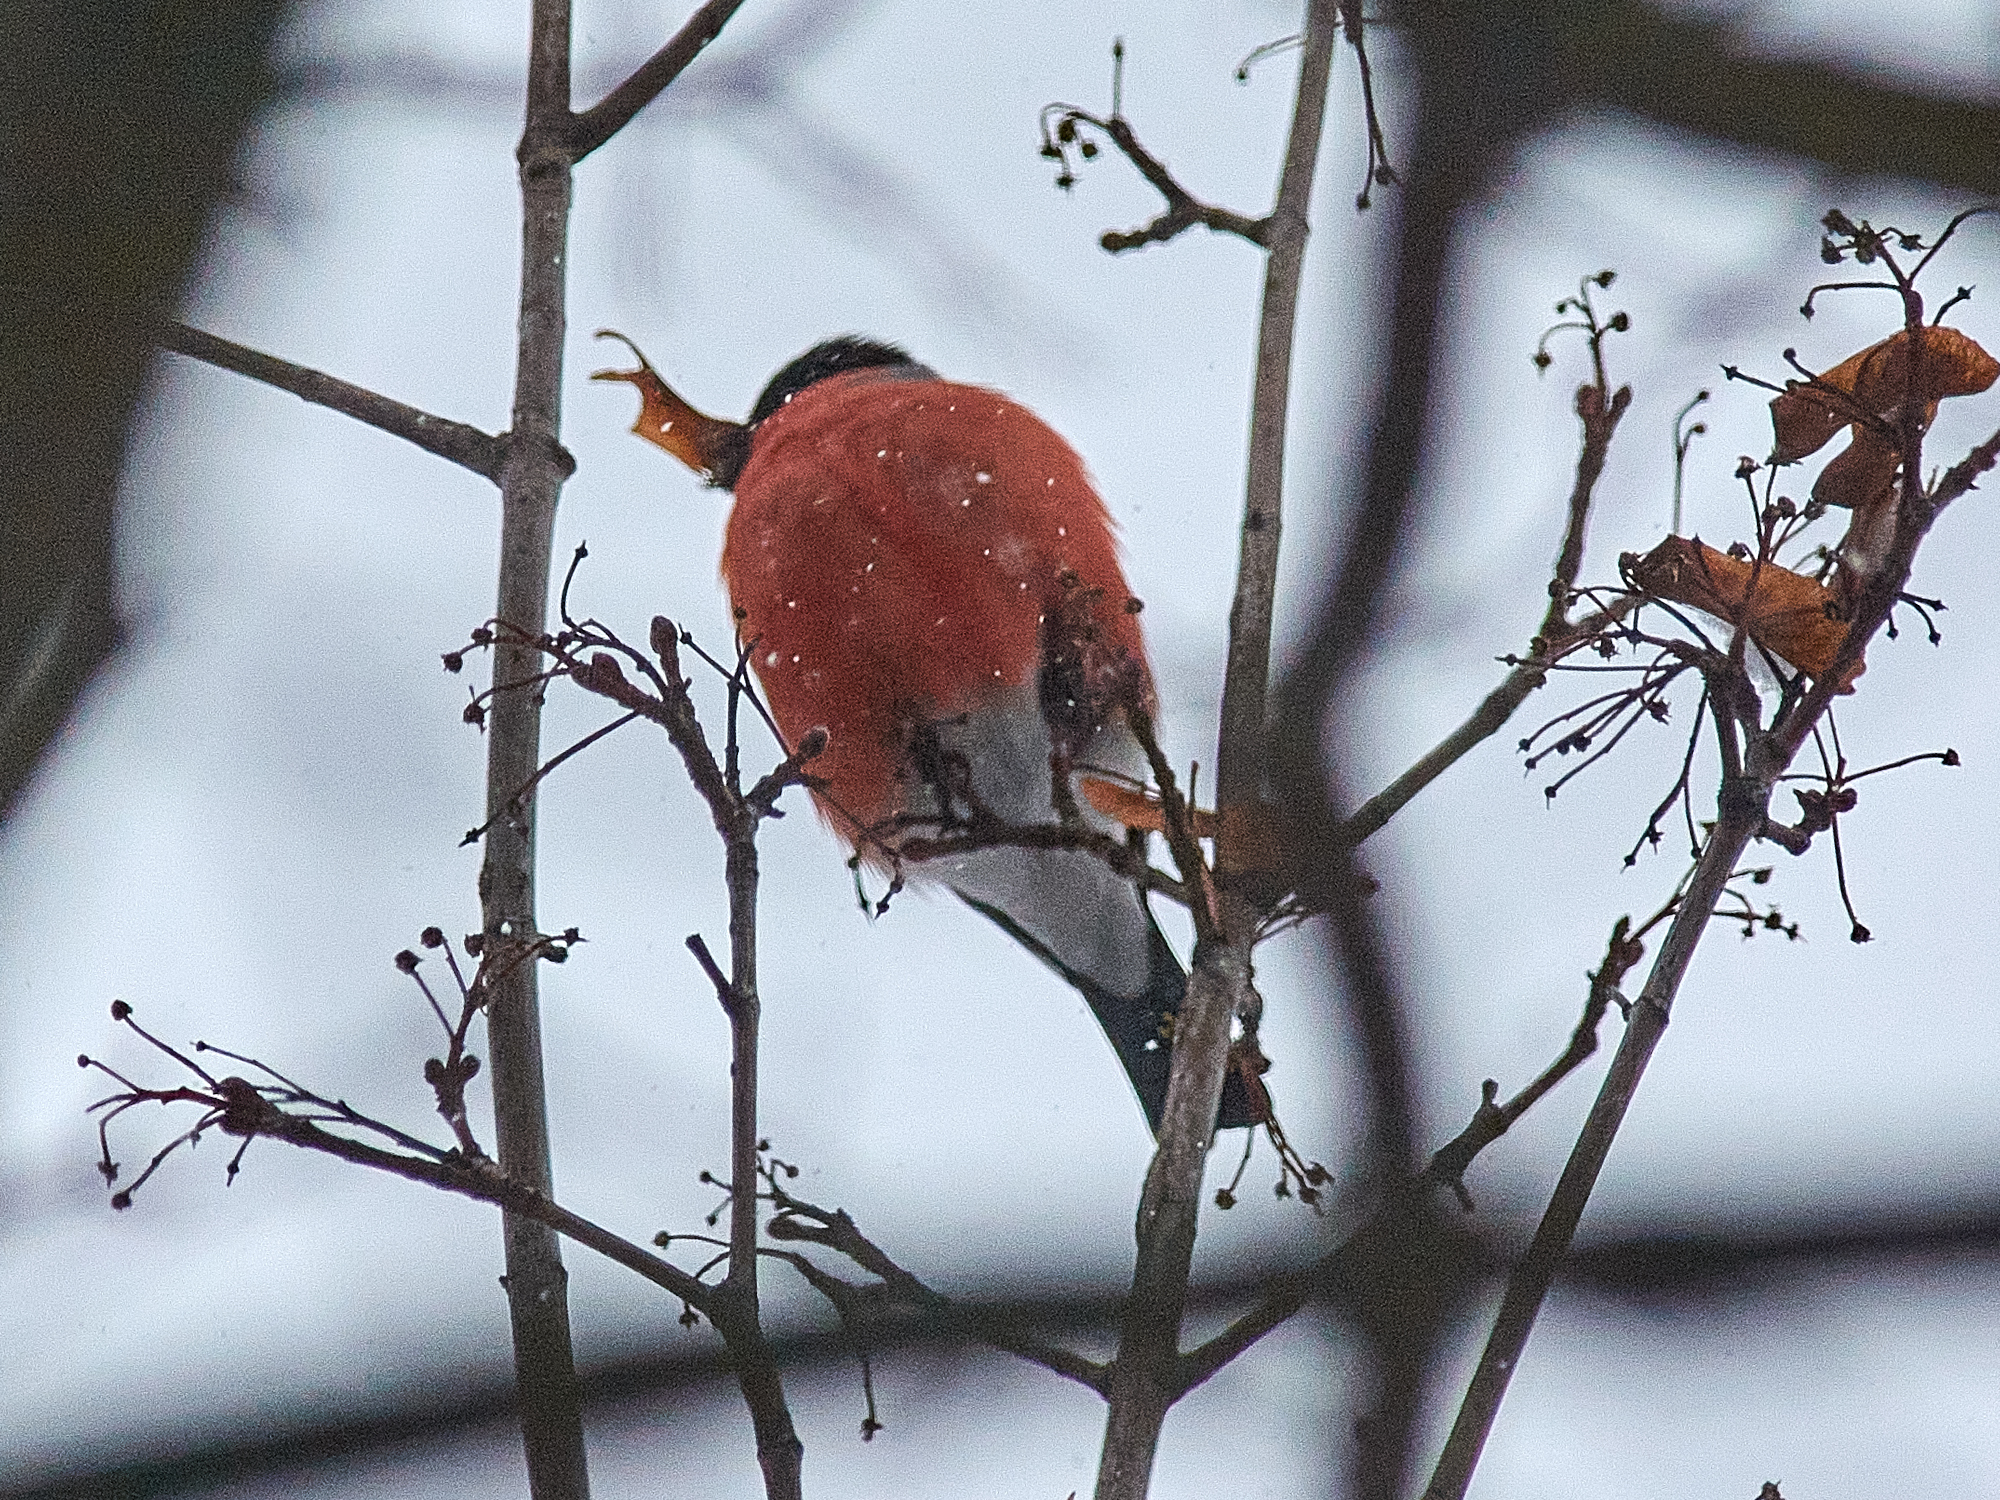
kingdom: Animalia
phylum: Chordata
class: Aves
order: Passeriformes
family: Fringillidae
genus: Pyrrhula
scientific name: Pyrrhula pyrrhula
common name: Eurasian bullfinch
